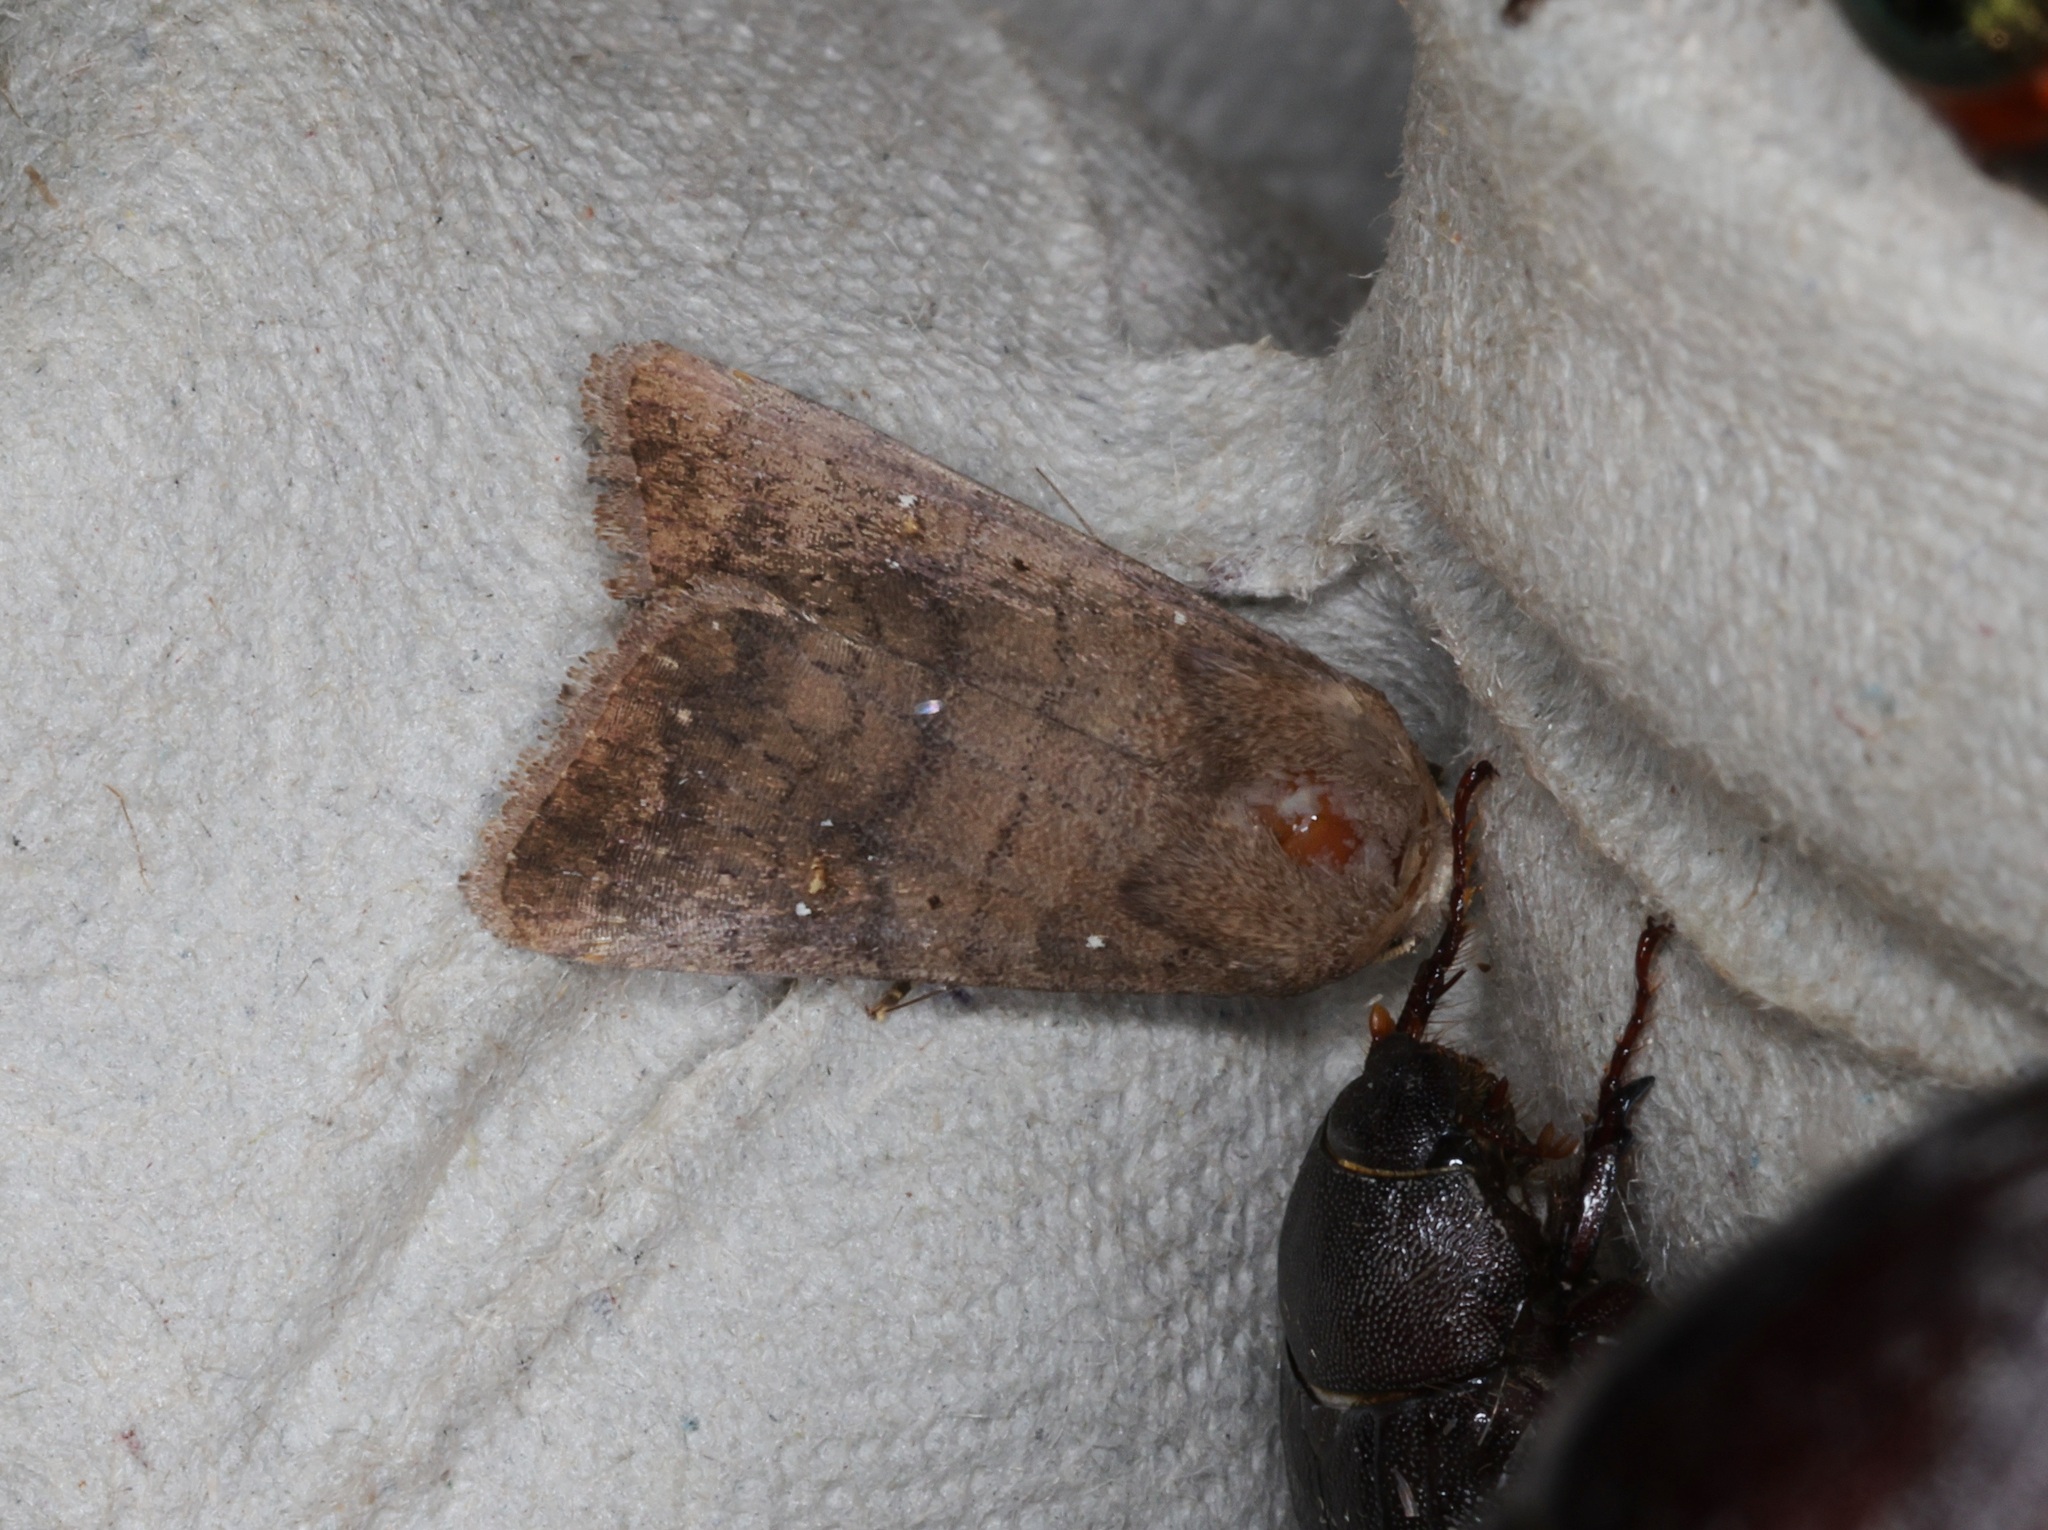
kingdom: Animalia
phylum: Arthropoda
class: Insecta
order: Lepidoptera
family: Noctuidae
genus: Athetis
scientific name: Athetis stellata
